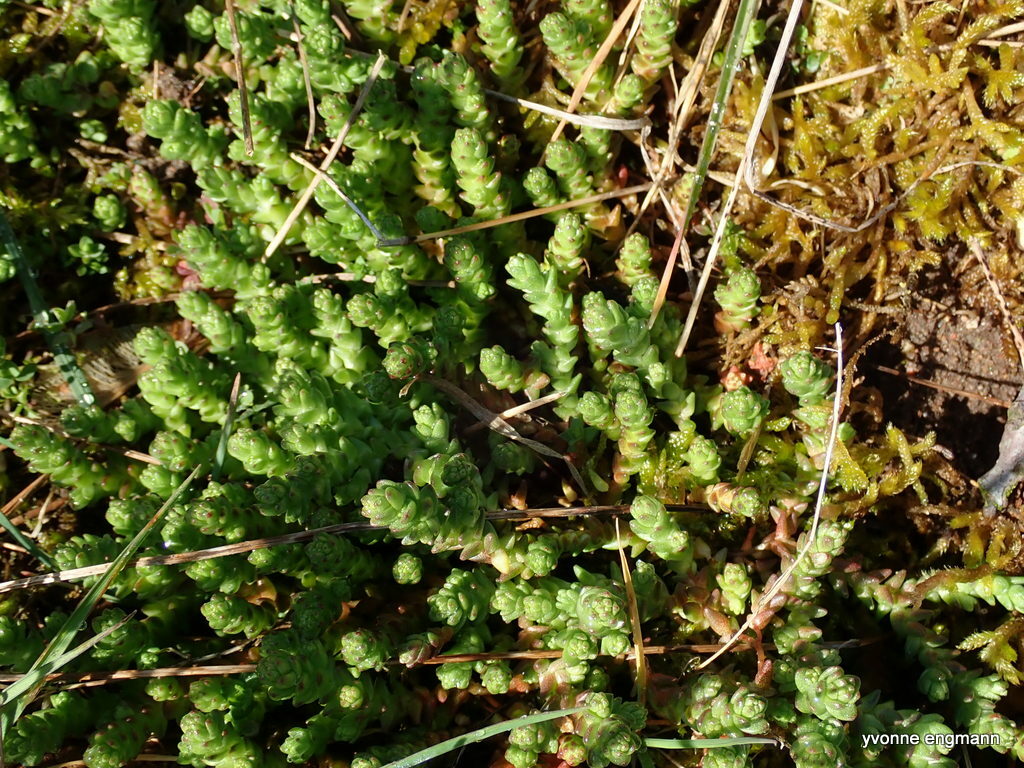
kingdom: Plantae
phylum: Tracheophyta
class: Magnoliopsida
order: Saxifragales
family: Crassulaceae
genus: Sedum
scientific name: Sedum acre
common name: Biting stonecrop
